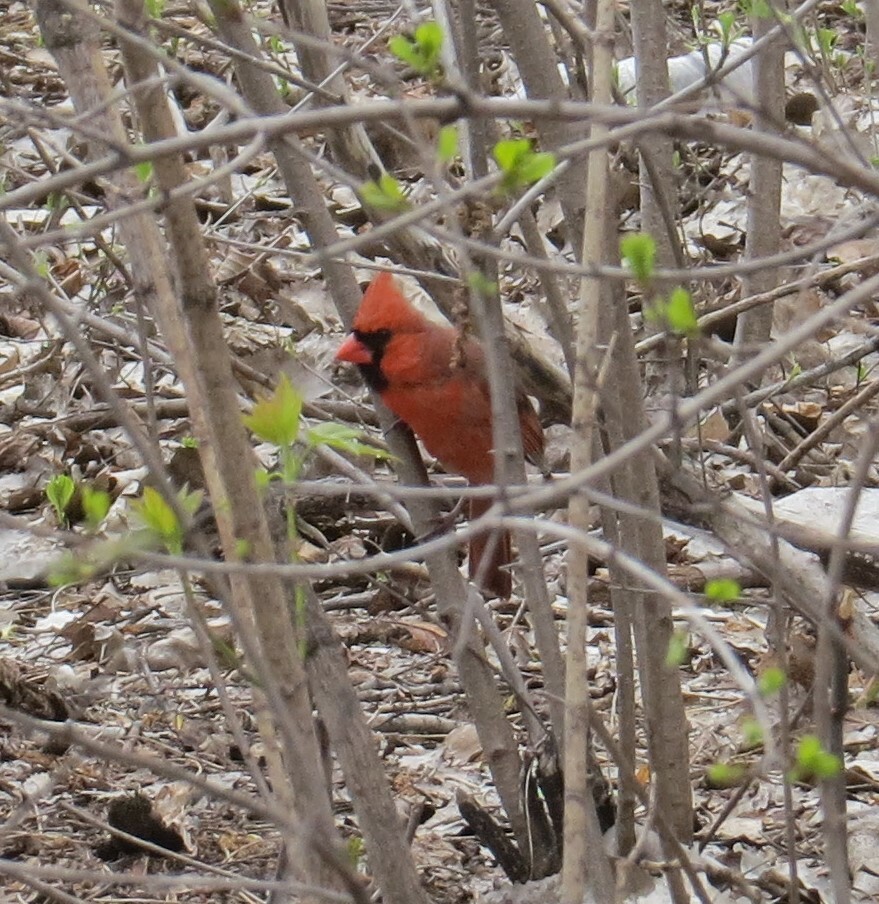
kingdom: Animalia
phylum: Chordata
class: Aves
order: Passeriformes
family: Cardinalidae
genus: Cardinalis
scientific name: Cardinalis cardinalis
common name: Northern cardinal
